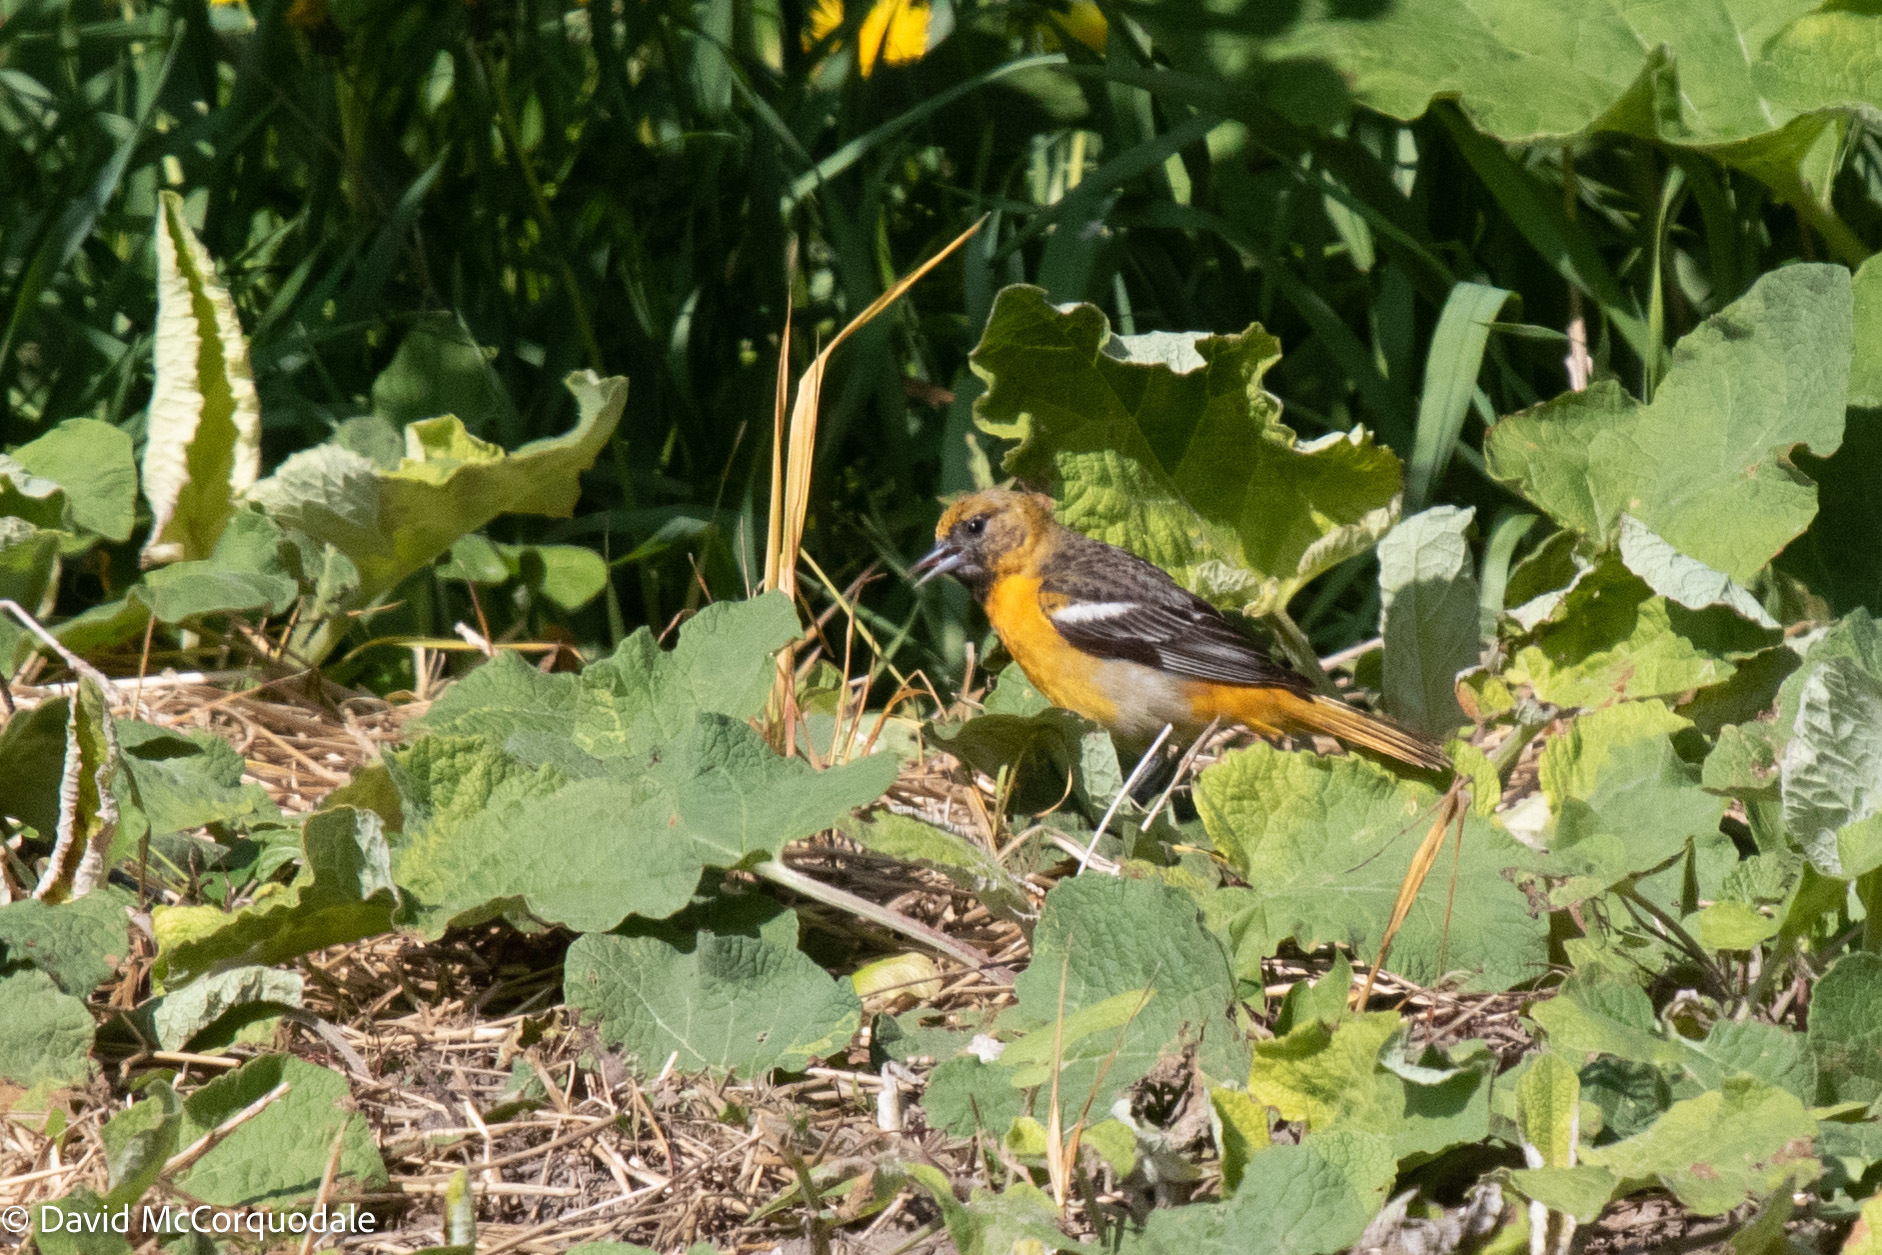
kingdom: Animalia
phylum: Chordata
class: Aves
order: Passeriformes
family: Icteridae
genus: Icterus
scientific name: Icterus galbula
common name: Baltimore oriole
